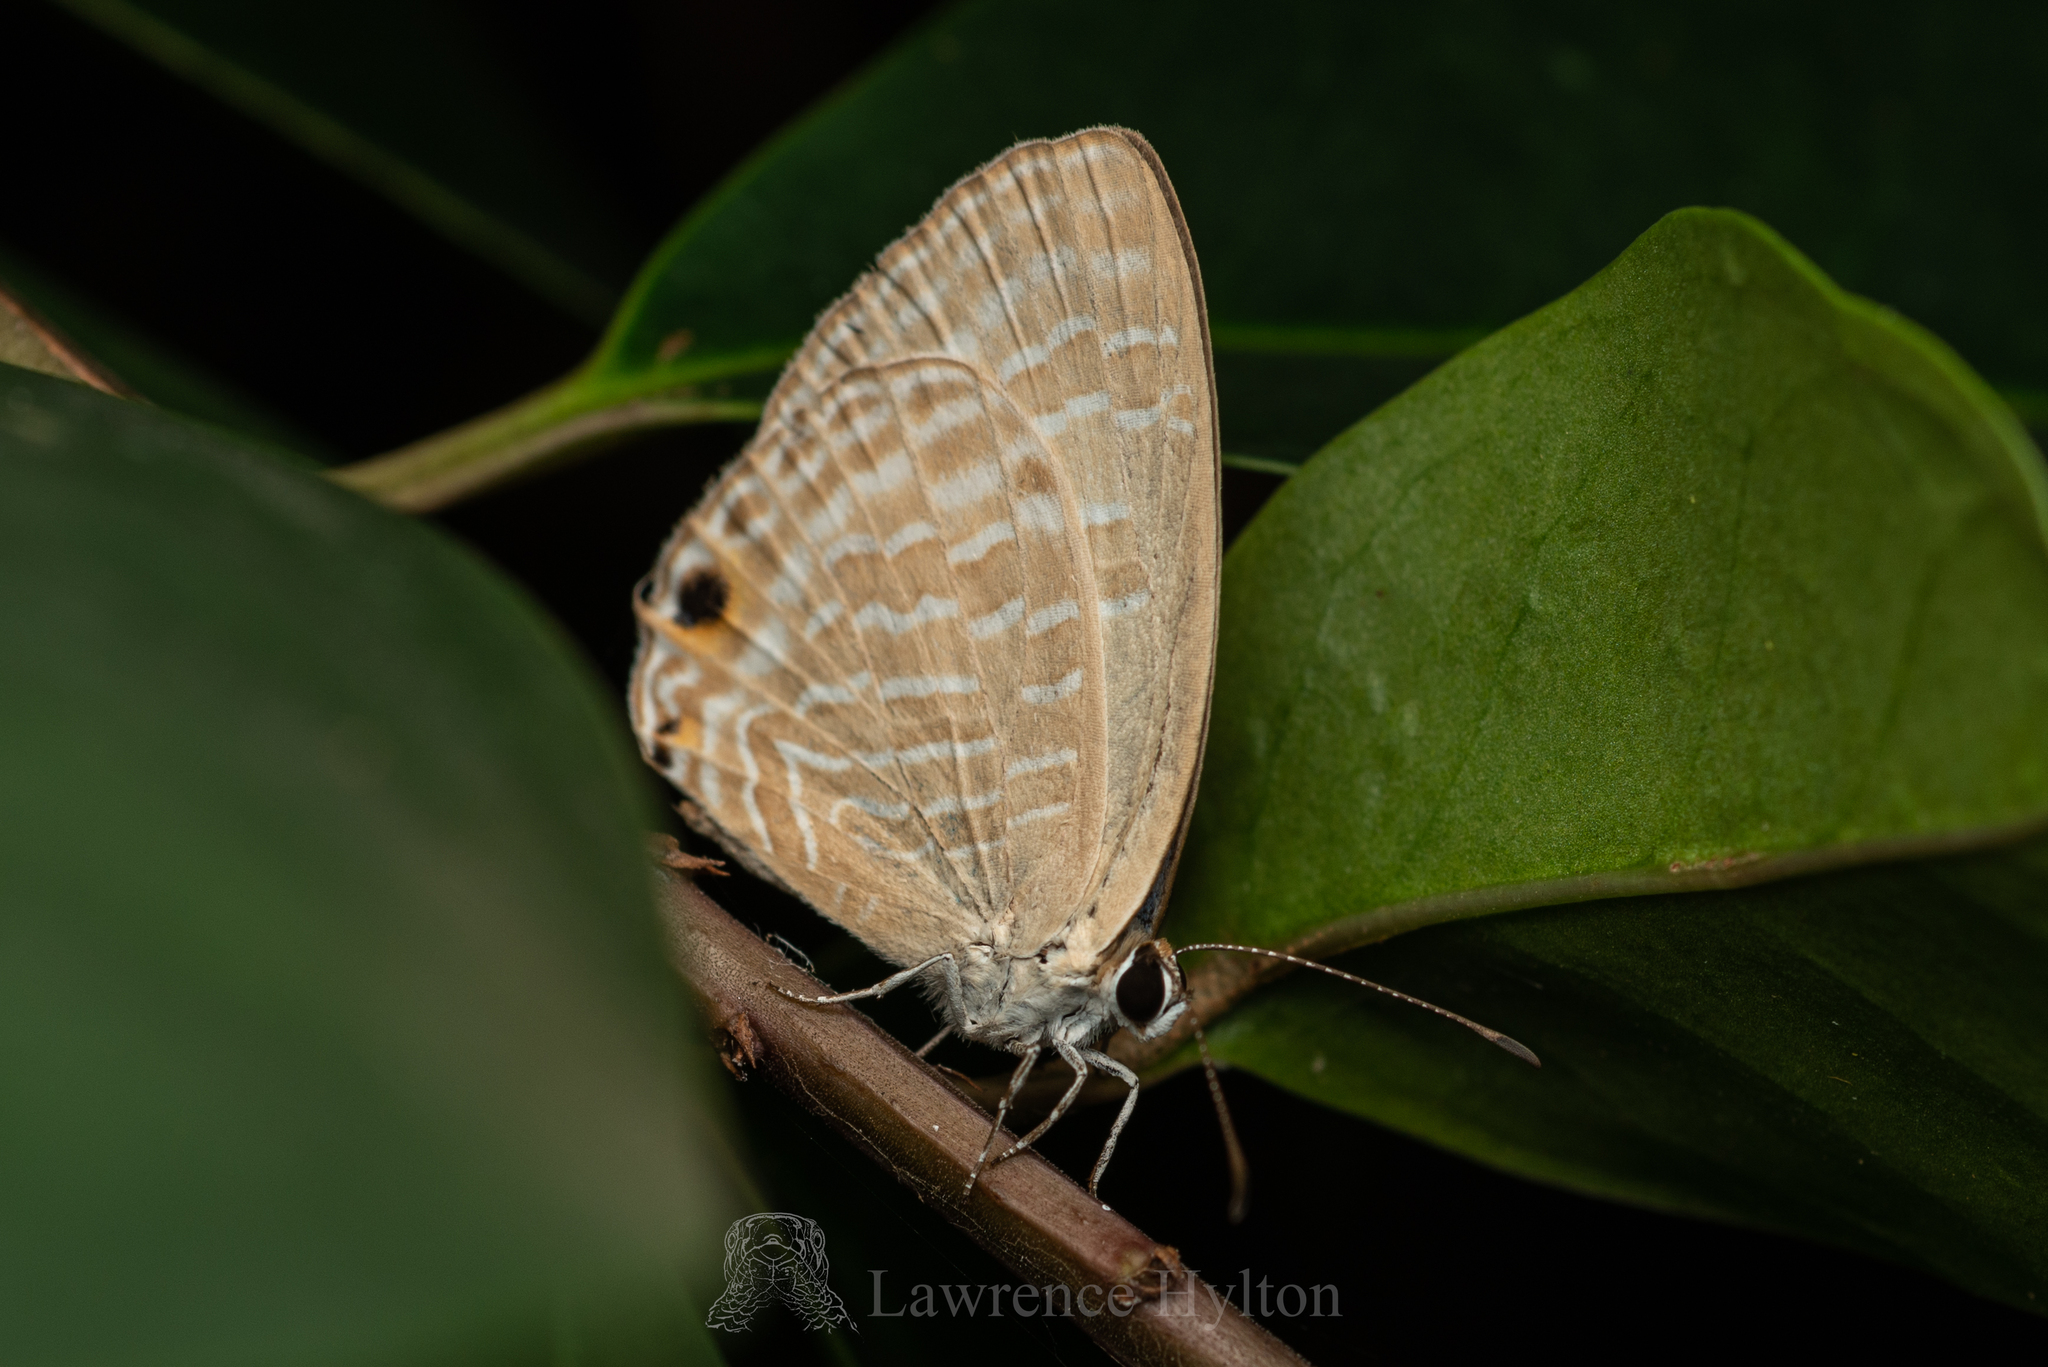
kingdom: Animalia
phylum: Arthropoda
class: Insecta
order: Lepidoptera
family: Lycaenidae
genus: Jamides
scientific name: Jamides alecto
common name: Metallic cerulean
